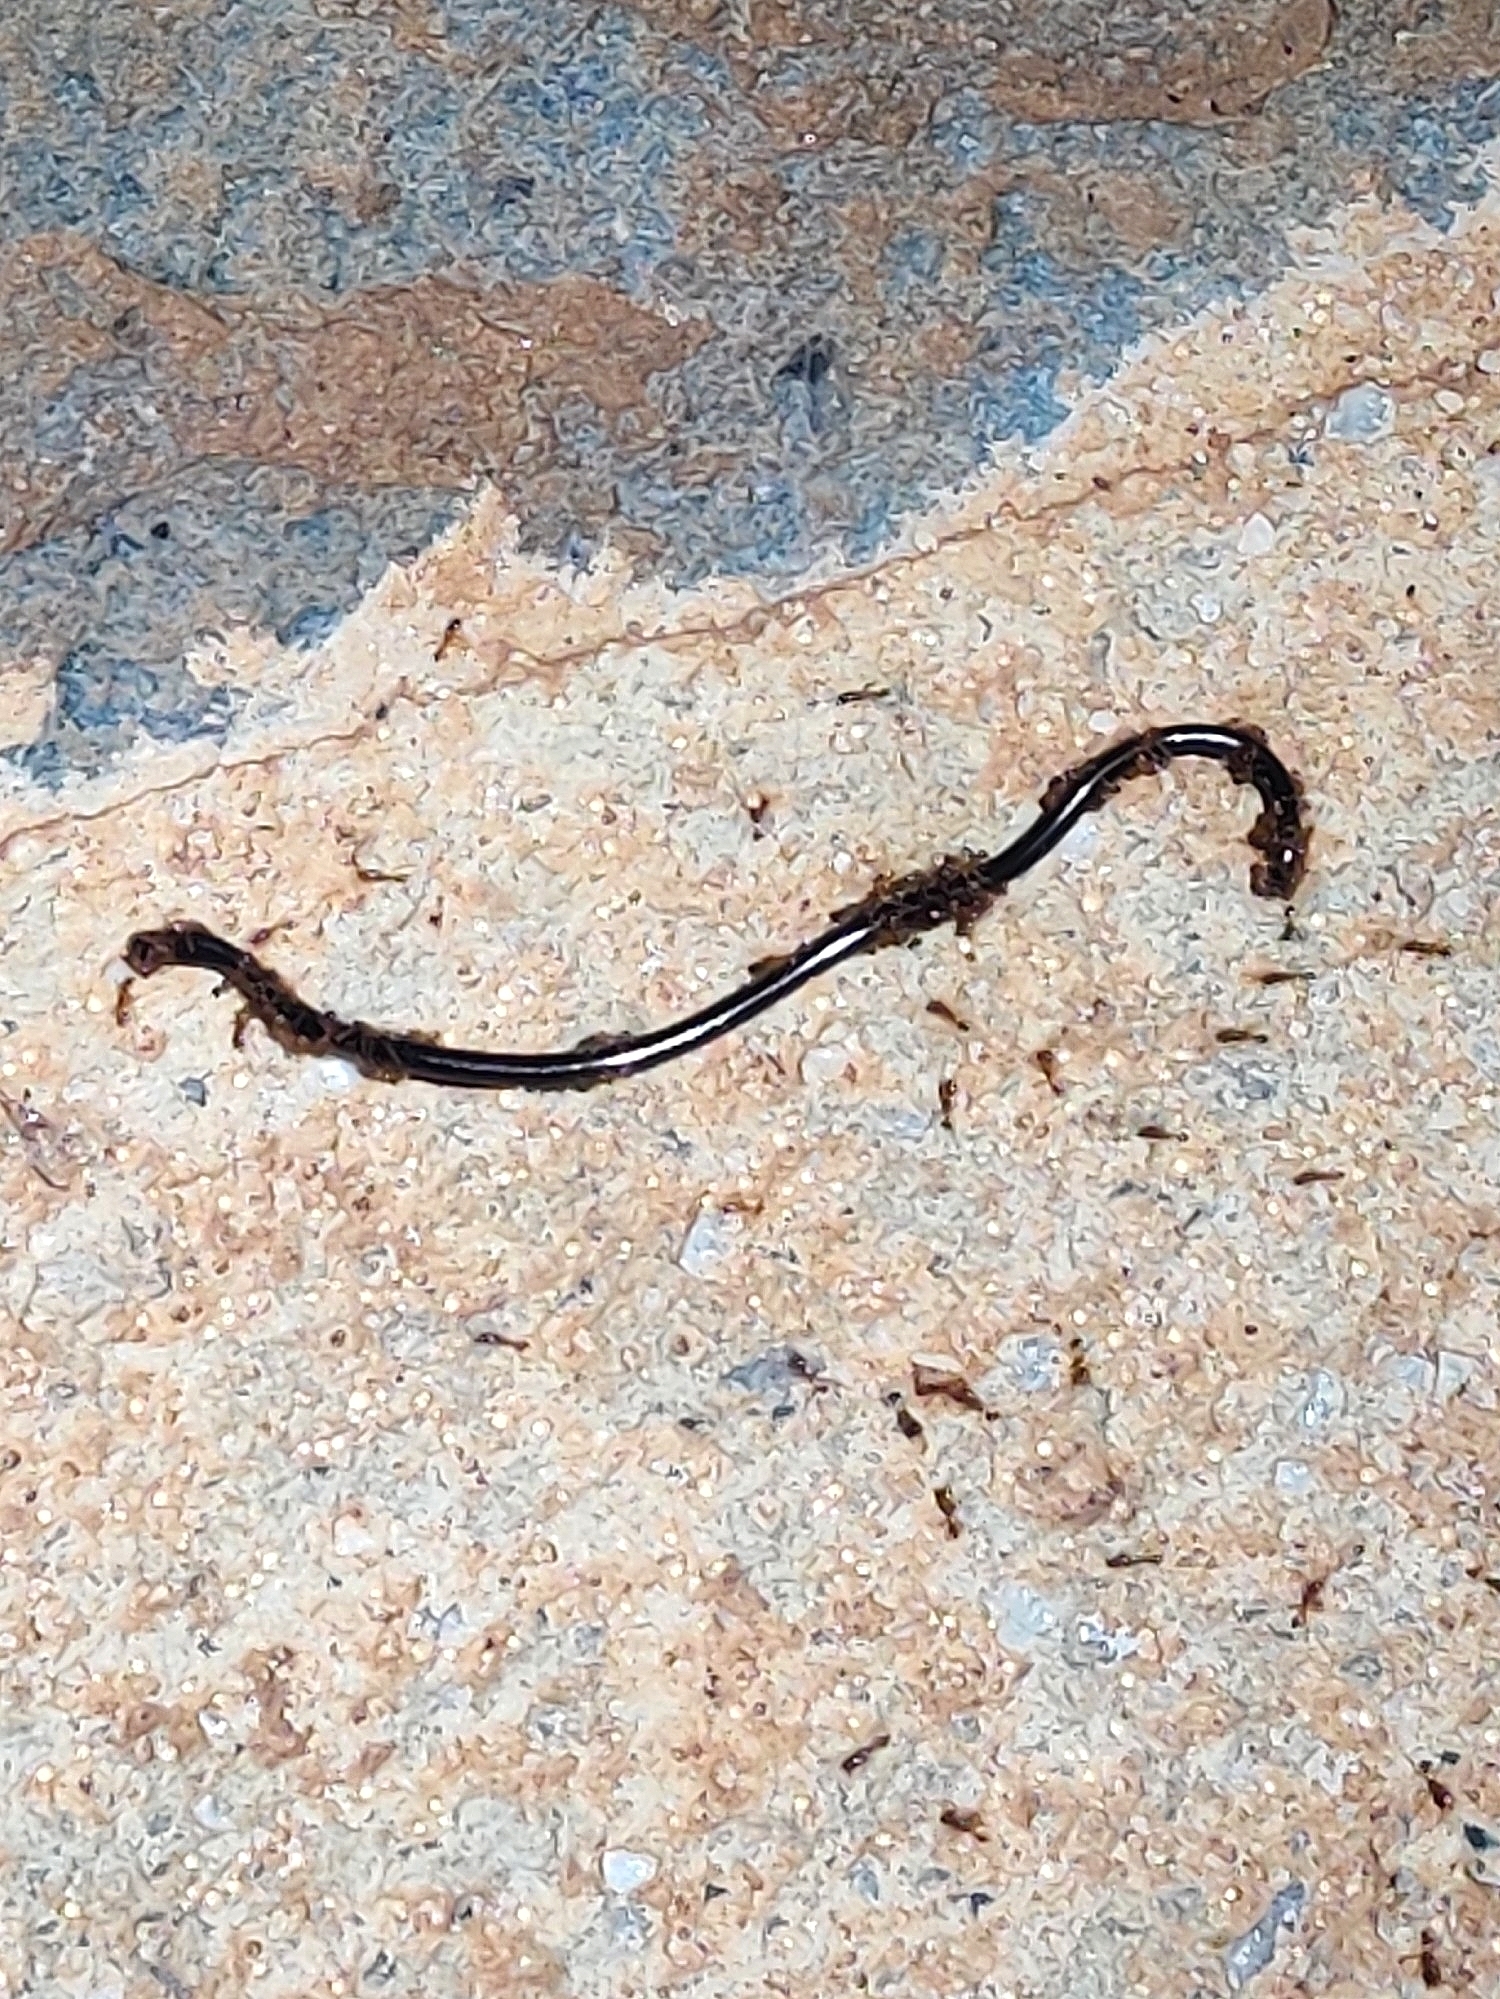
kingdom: Animalia
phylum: Chordata
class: Squamata
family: Typhlopidae
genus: Indotyphlops
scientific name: Indotyphlops braminus
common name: Brahminy blindsnake
